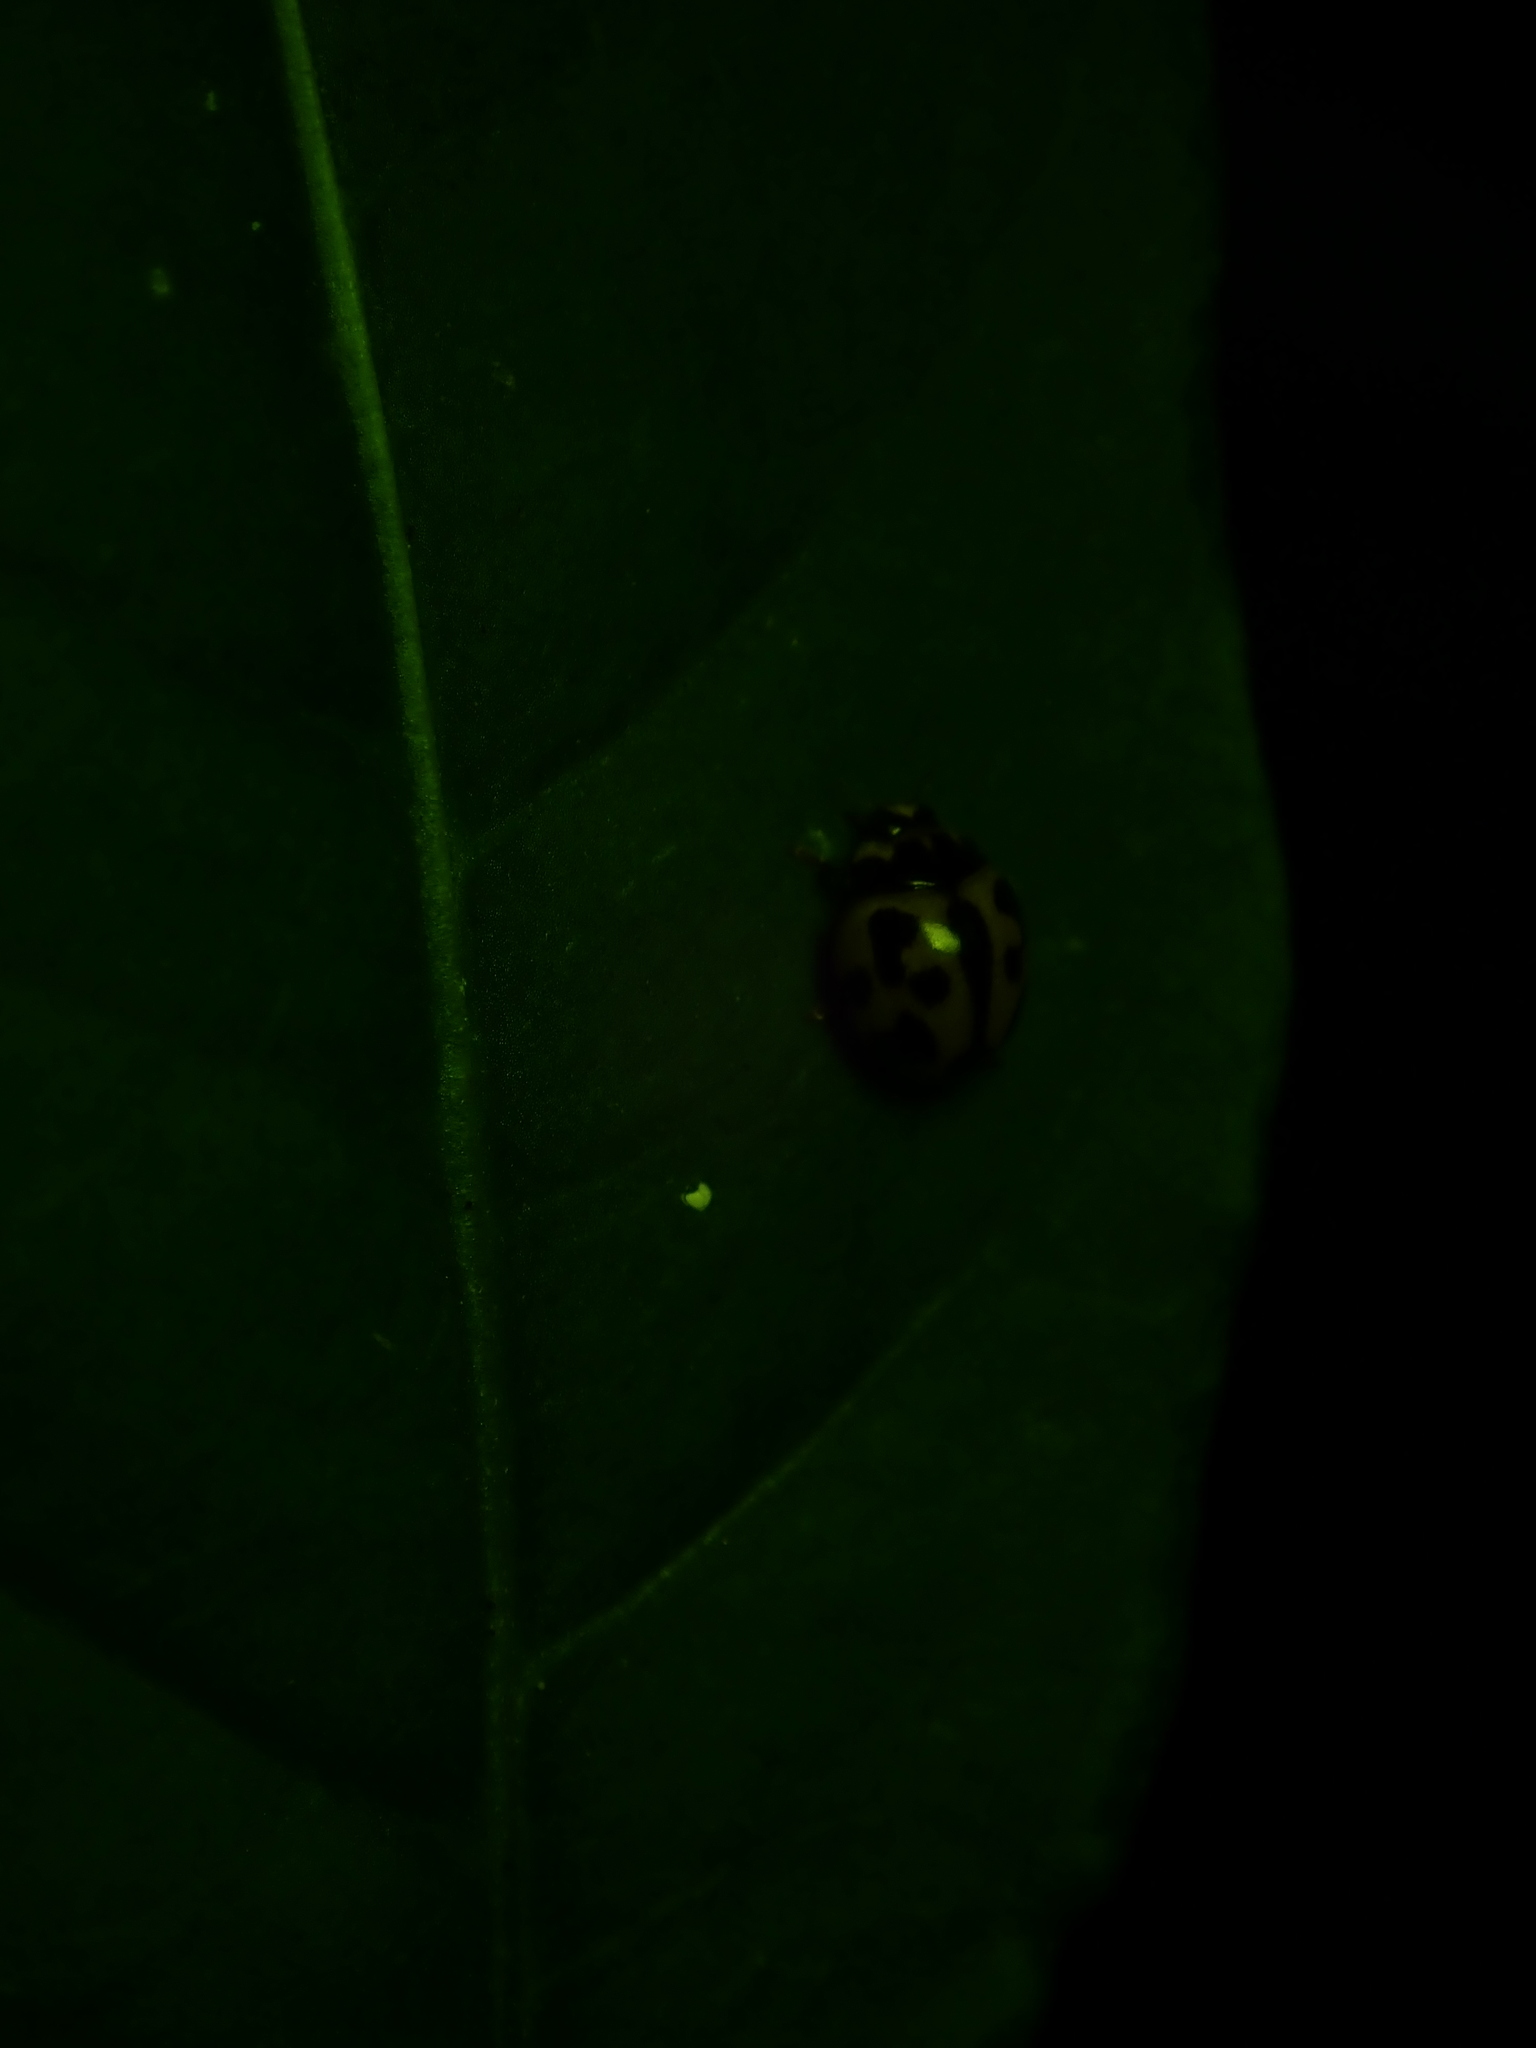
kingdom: Animalia
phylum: Arthropoda
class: Insecta
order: Coleoptera
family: Coccinellidae
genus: Coelophora
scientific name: Coelophora inaequalis
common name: Common australian lady beetle
